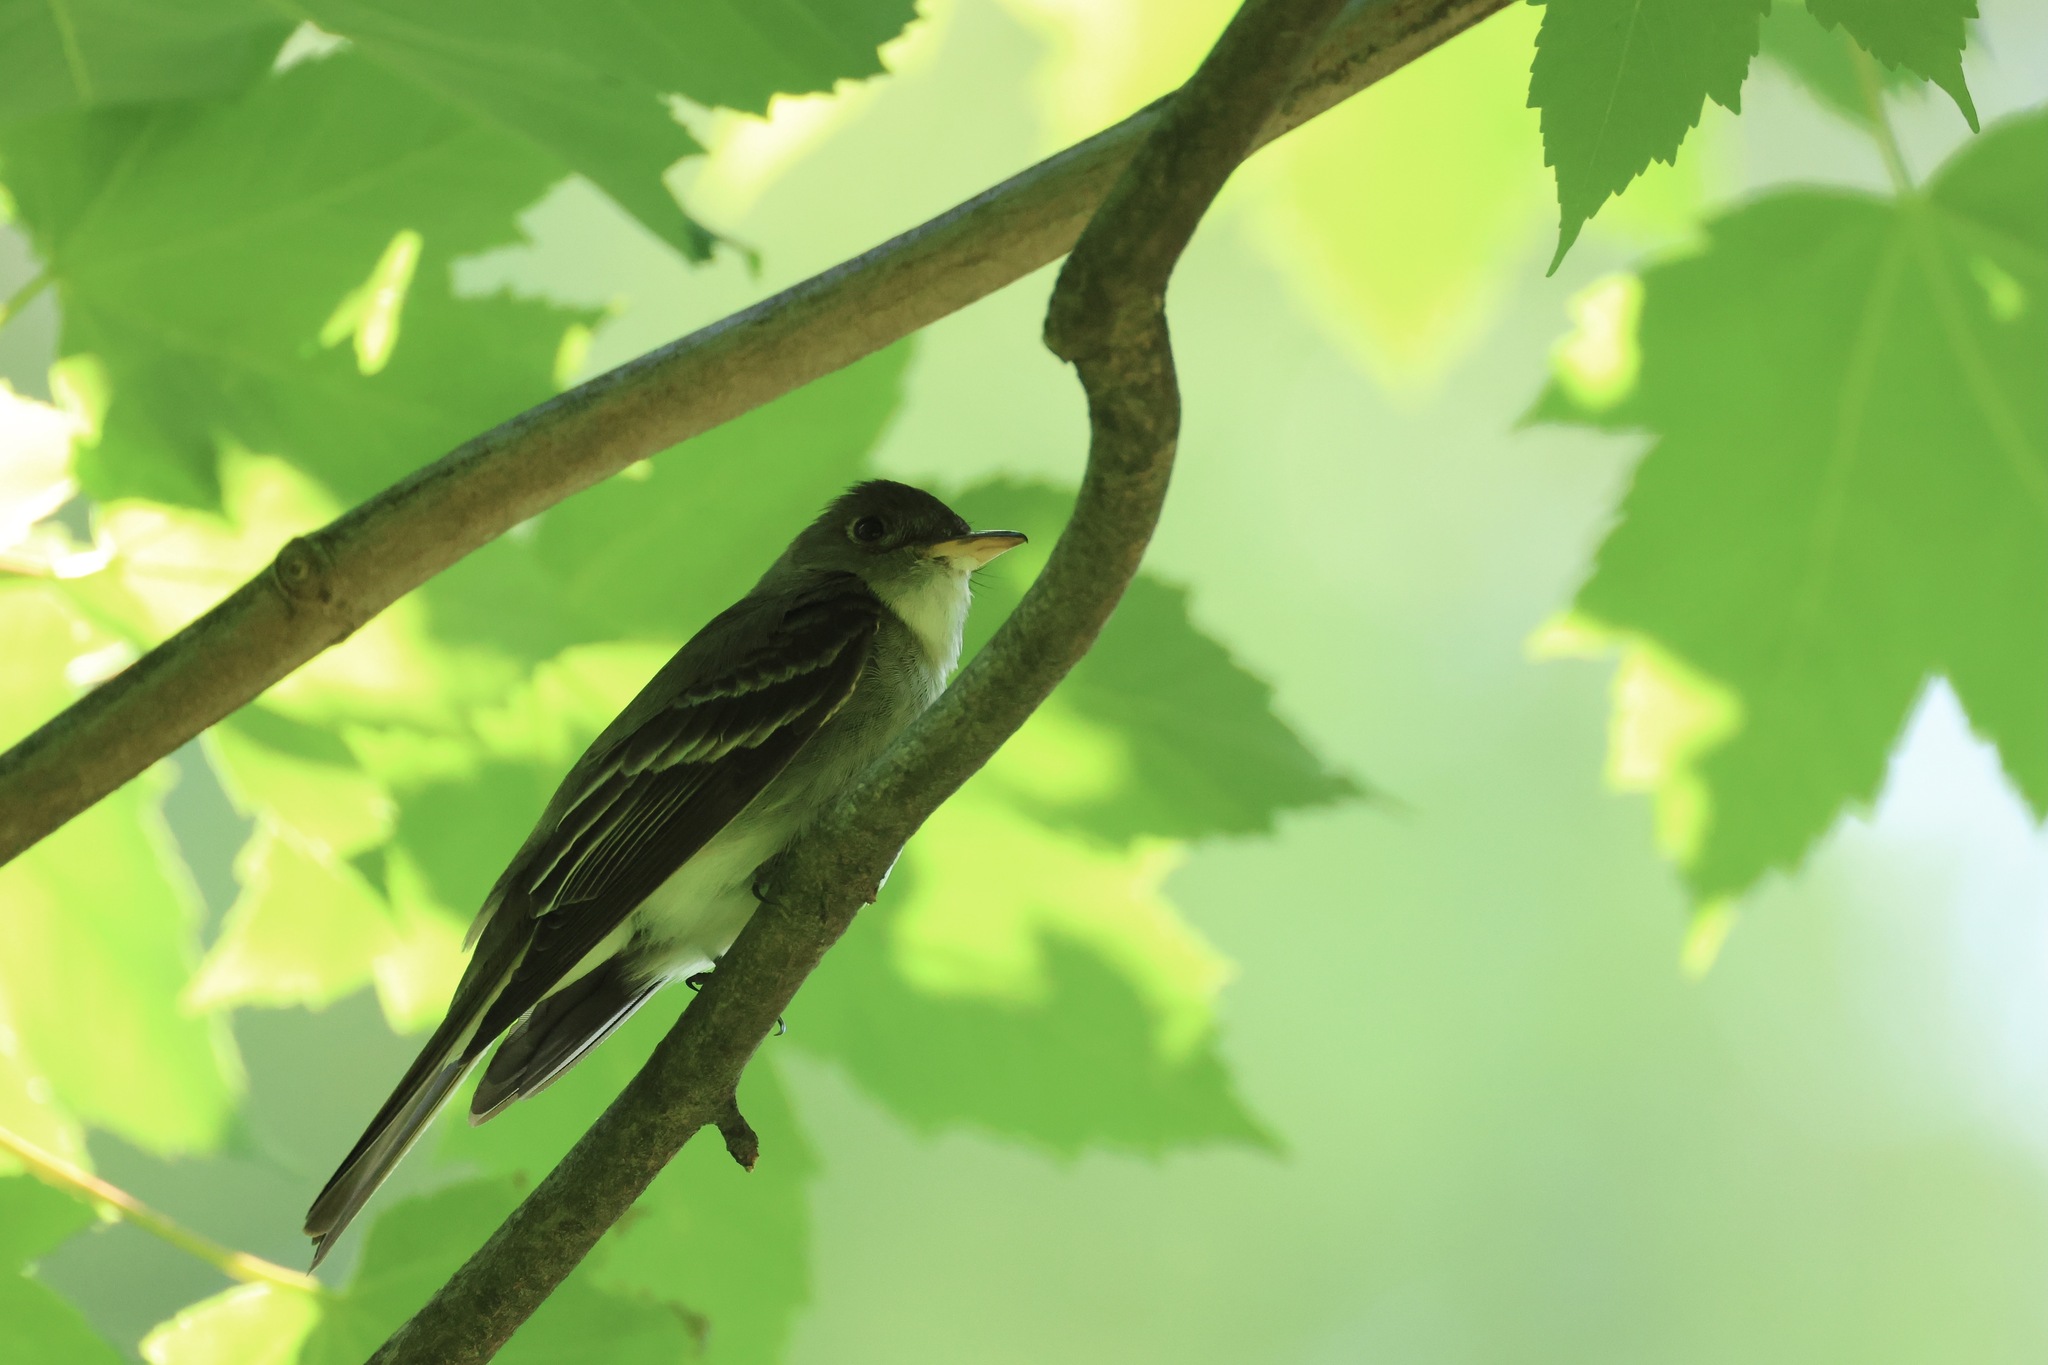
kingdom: Animalia
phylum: Chordata
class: Aves
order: Passeriformes
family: Tyrannidae
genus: Contopus
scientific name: Contopus virens
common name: Eastern wood-pewee
